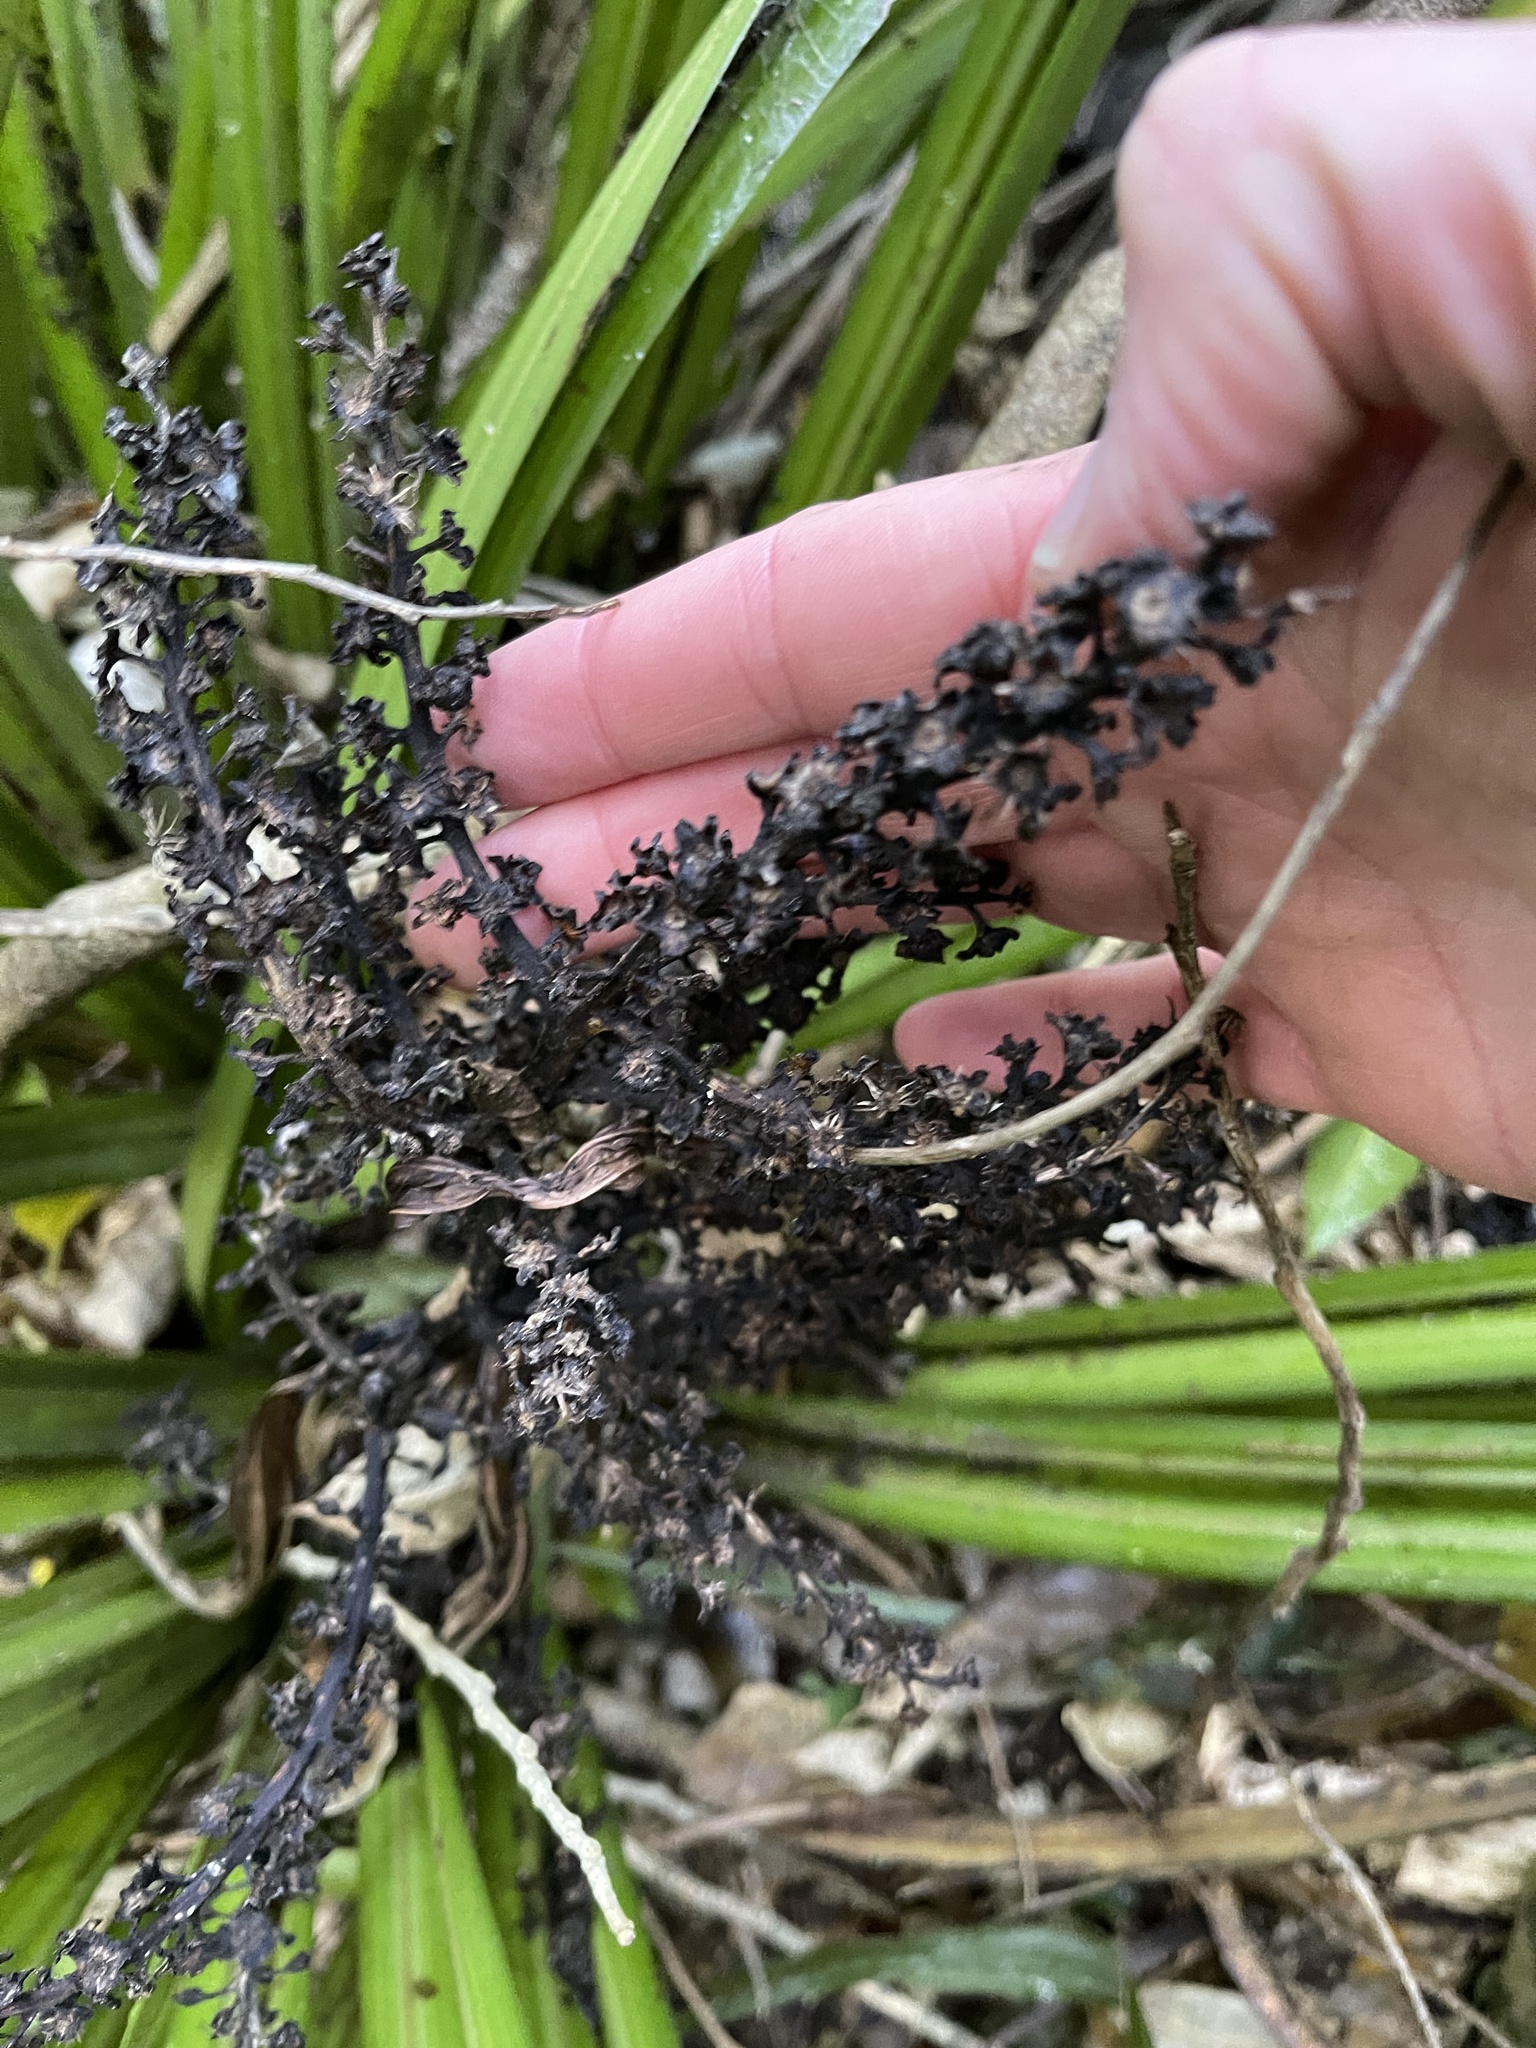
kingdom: Plantae
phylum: Tracheophyta
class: Liliopsida
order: Asparagales
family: Asteliaceae
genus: Astelia
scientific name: Astelia fragrans
